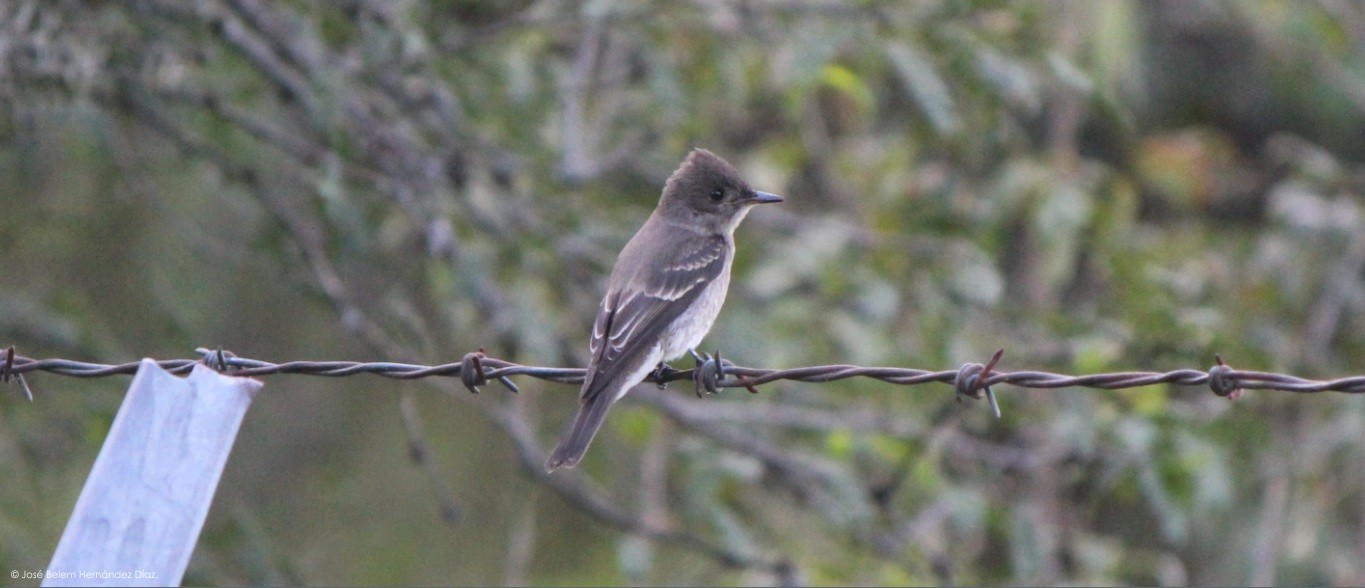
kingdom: Animalia
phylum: Chordata
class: Aves
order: Passeriformes
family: Tyrannidae
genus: Contopus
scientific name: Contopus sordidulus
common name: Western wood-pewee
